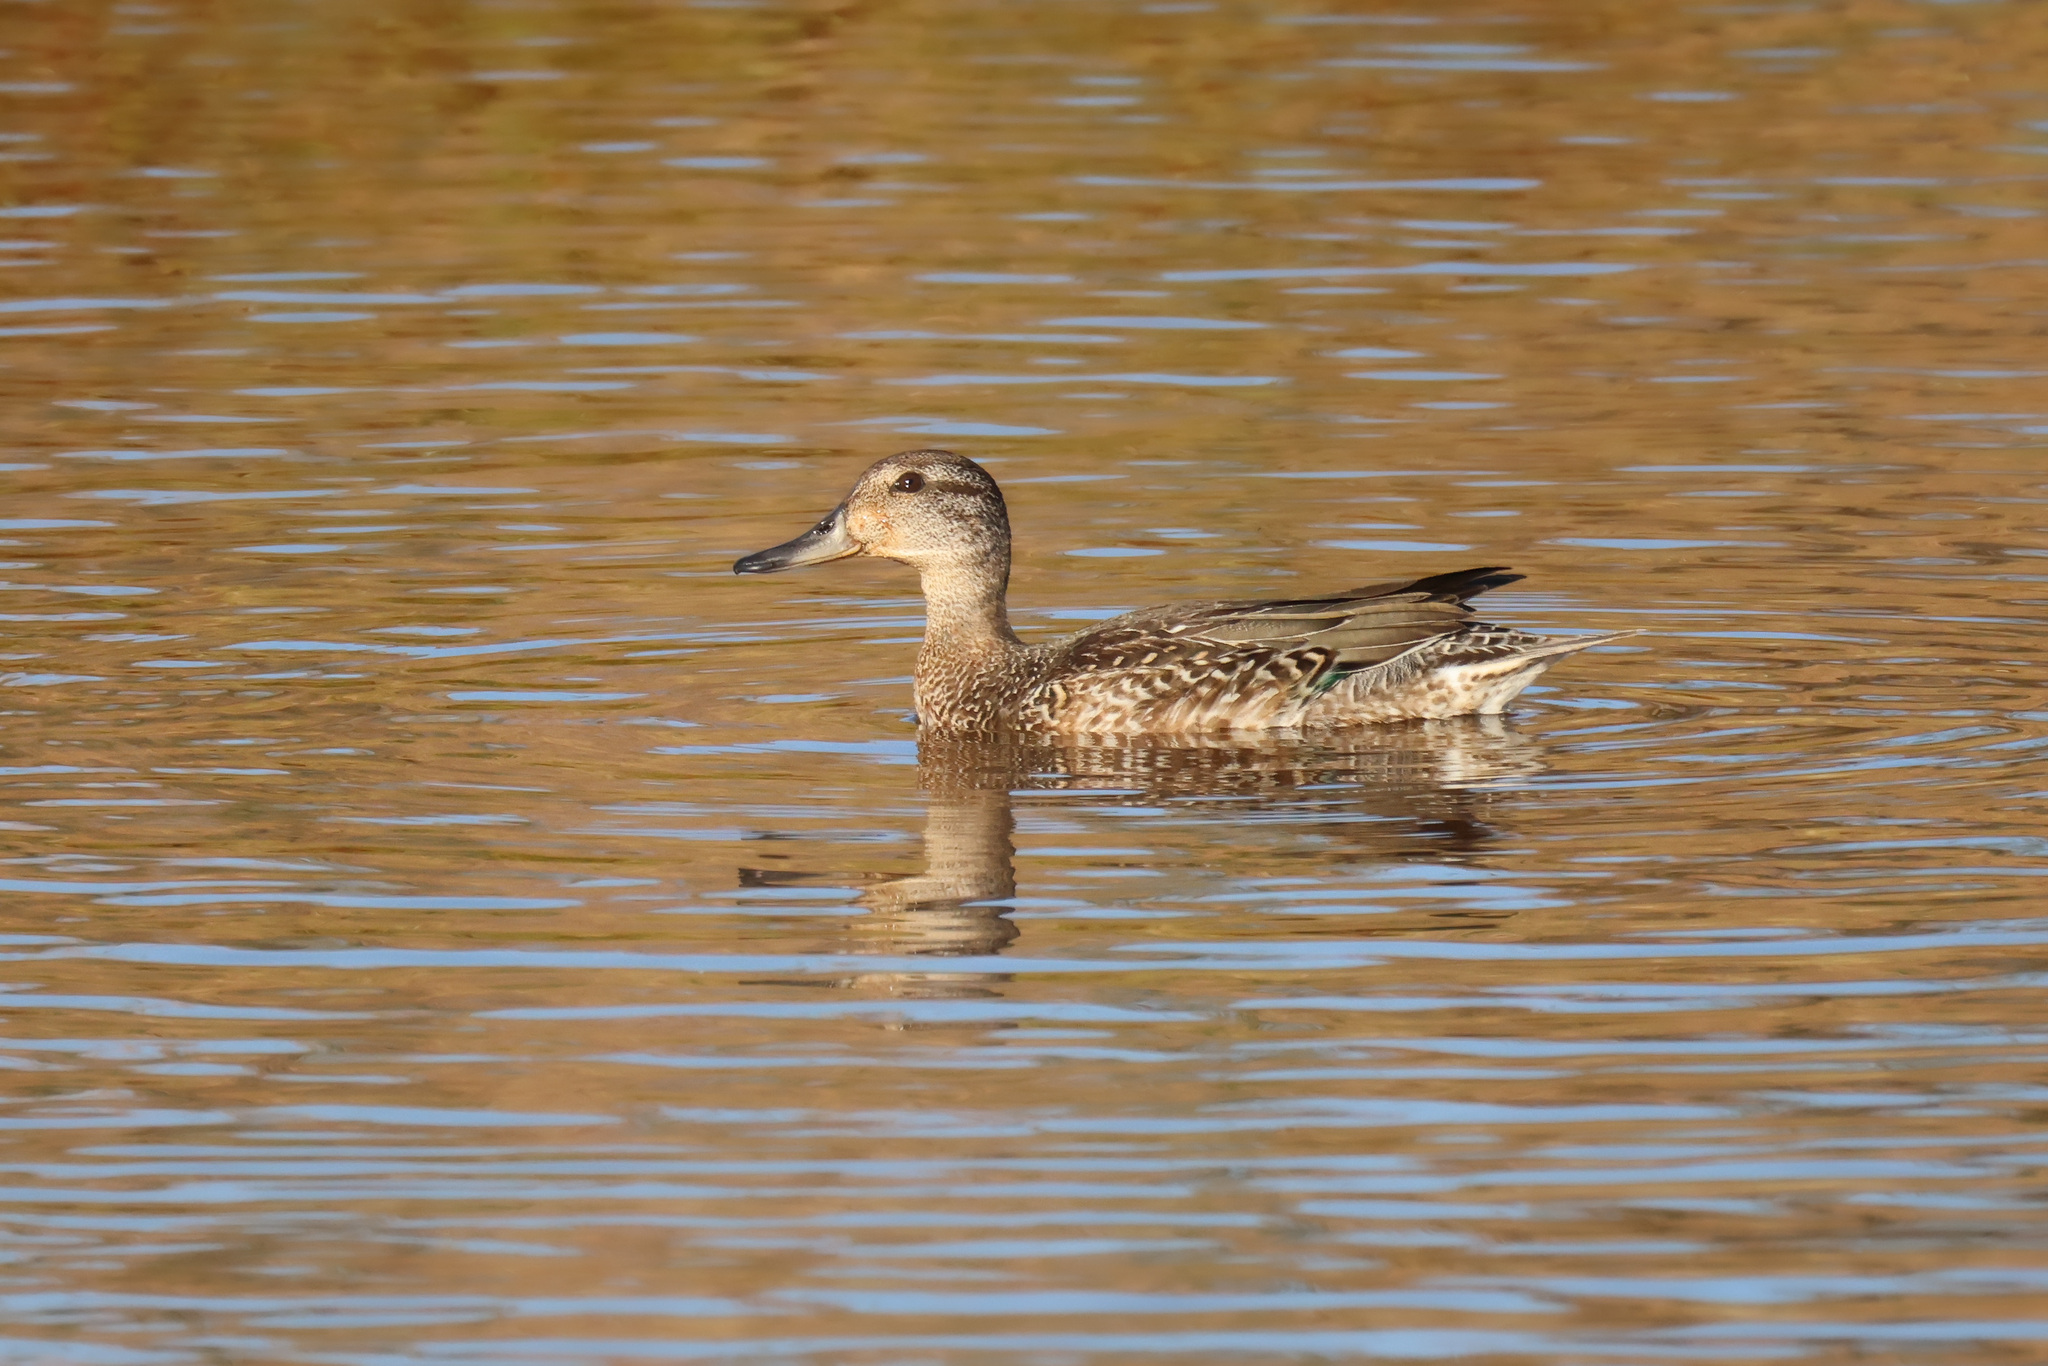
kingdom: Animalia
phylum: Chordata
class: Aves
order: Anseriformes
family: Anatidae
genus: Anas
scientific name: Anas crecca
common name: Eurasian teal
